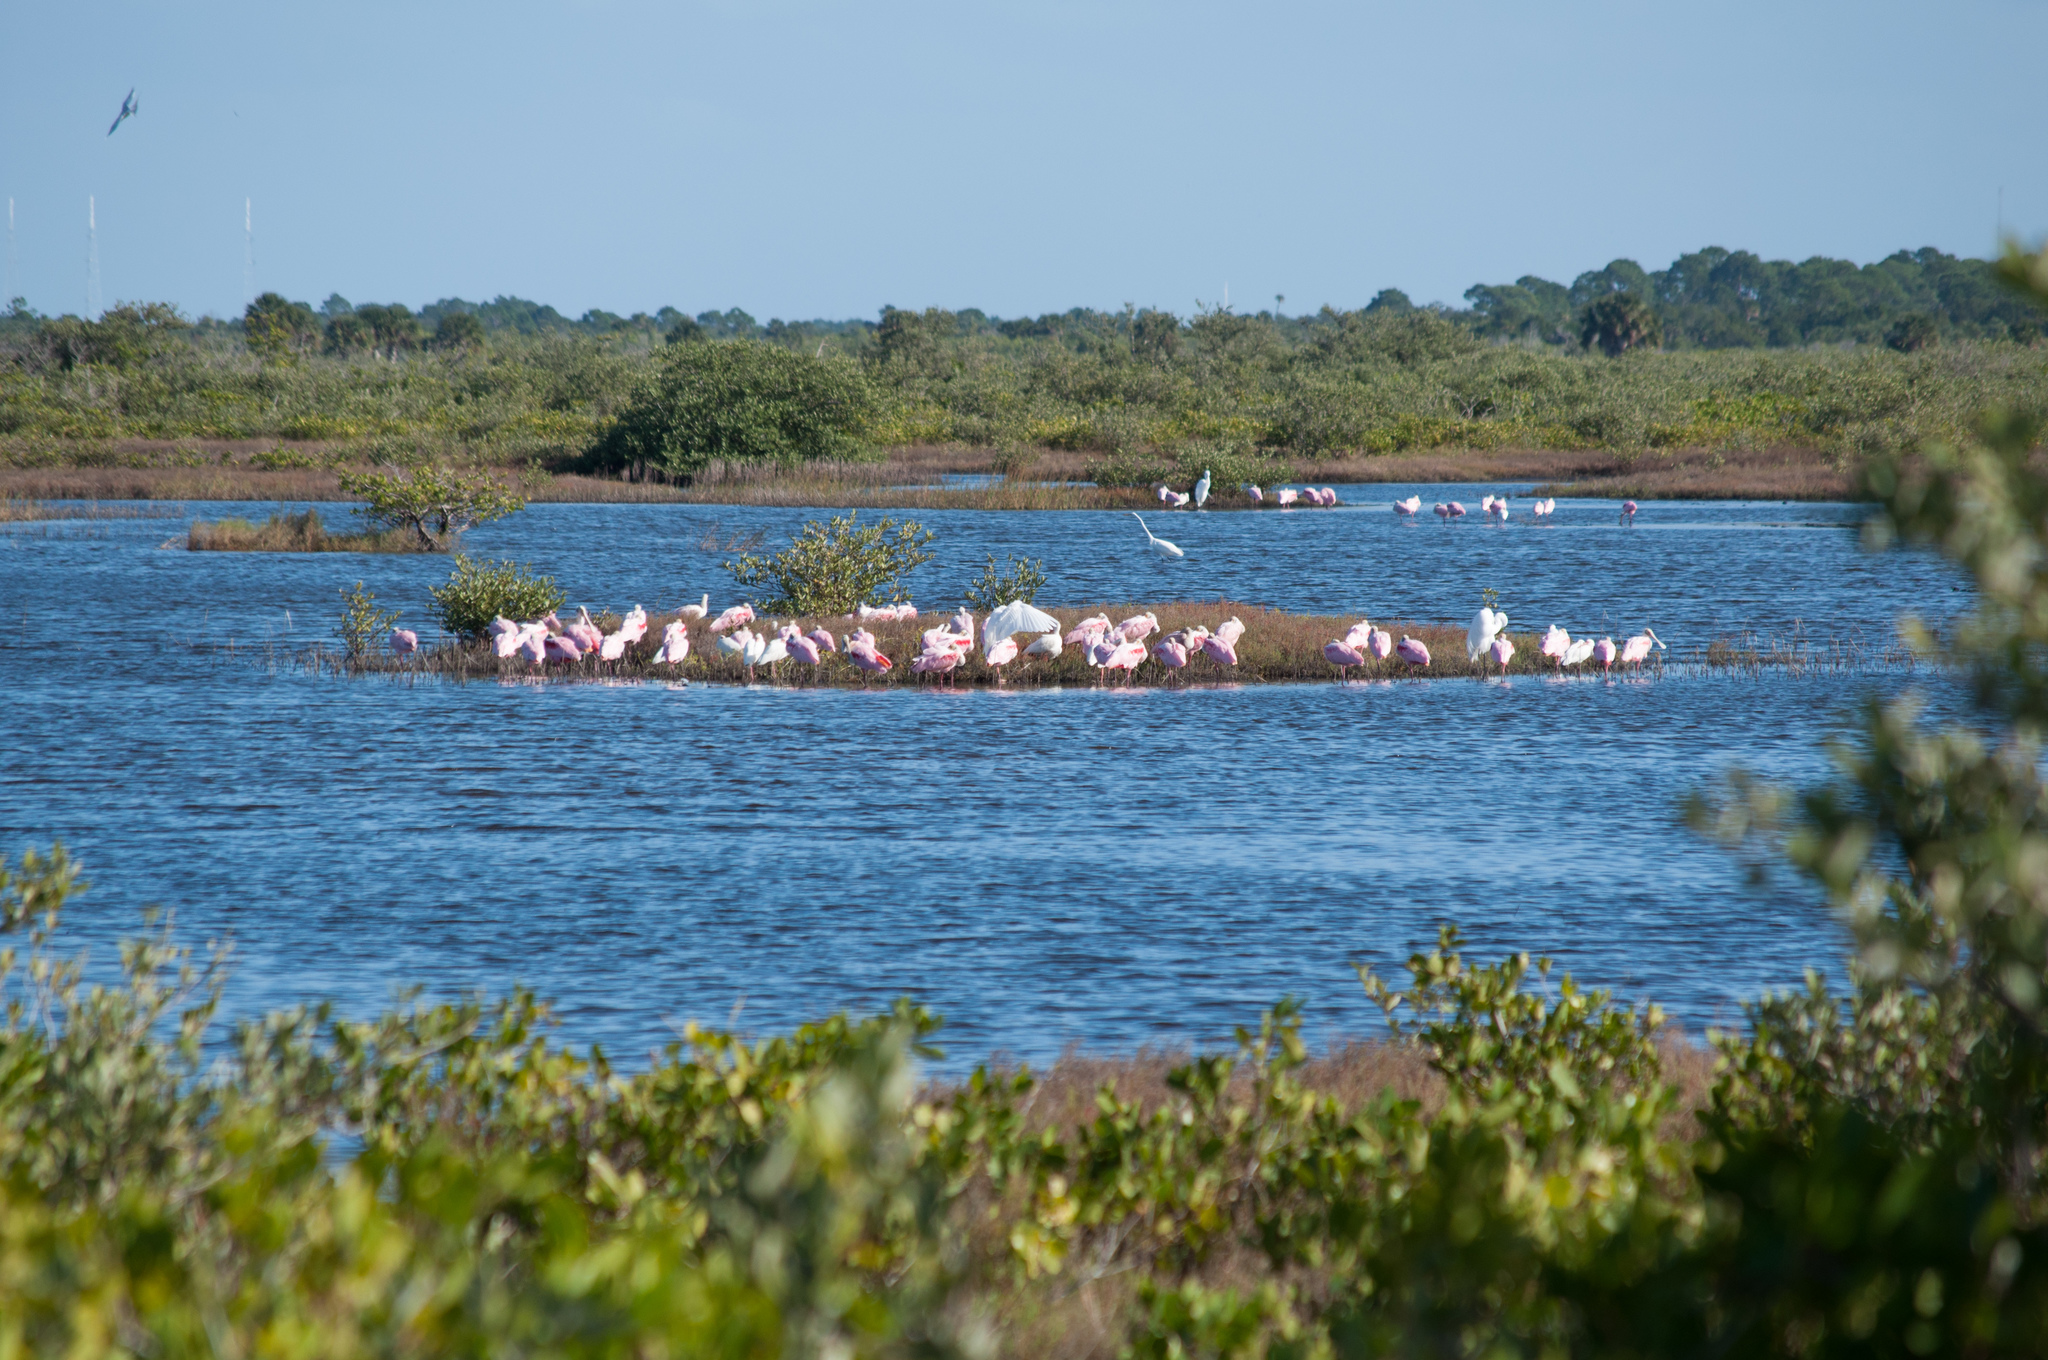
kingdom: Animalia
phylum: Chordata
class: Aves
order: Pelecaniformes
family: Threskiornithidae
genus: Platalea
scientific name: Platalea ajaja
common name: Roseate spoonbill
